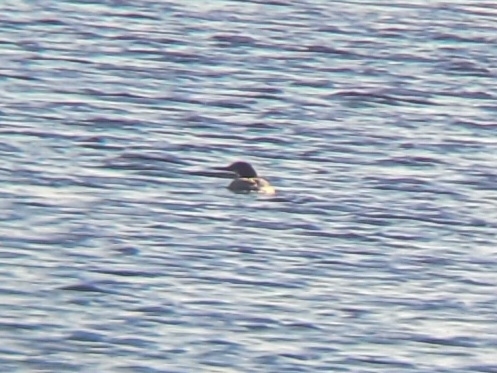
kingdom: Animalia
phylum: Chordata
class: Aves
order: Anseriformes
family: Anatidae
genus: Mergus
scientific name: Mergus merganser
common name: Common merganser
